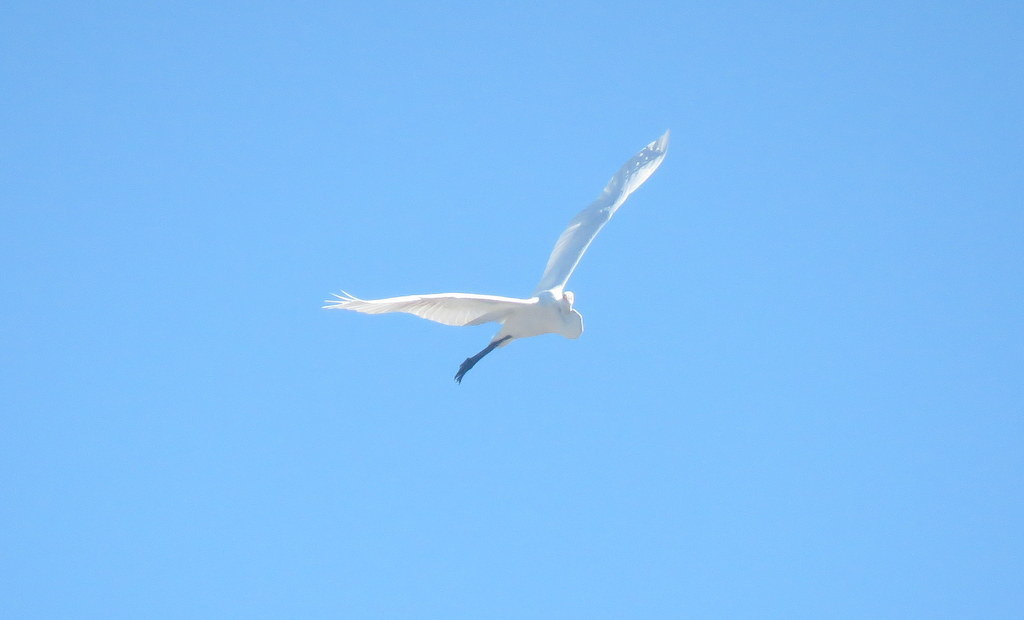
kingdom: Animalia
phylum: Chordata
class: Aves
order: Pelecaniformes
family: Ardeidae
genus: Ardea
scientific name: Ardea alba
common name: Great egret
